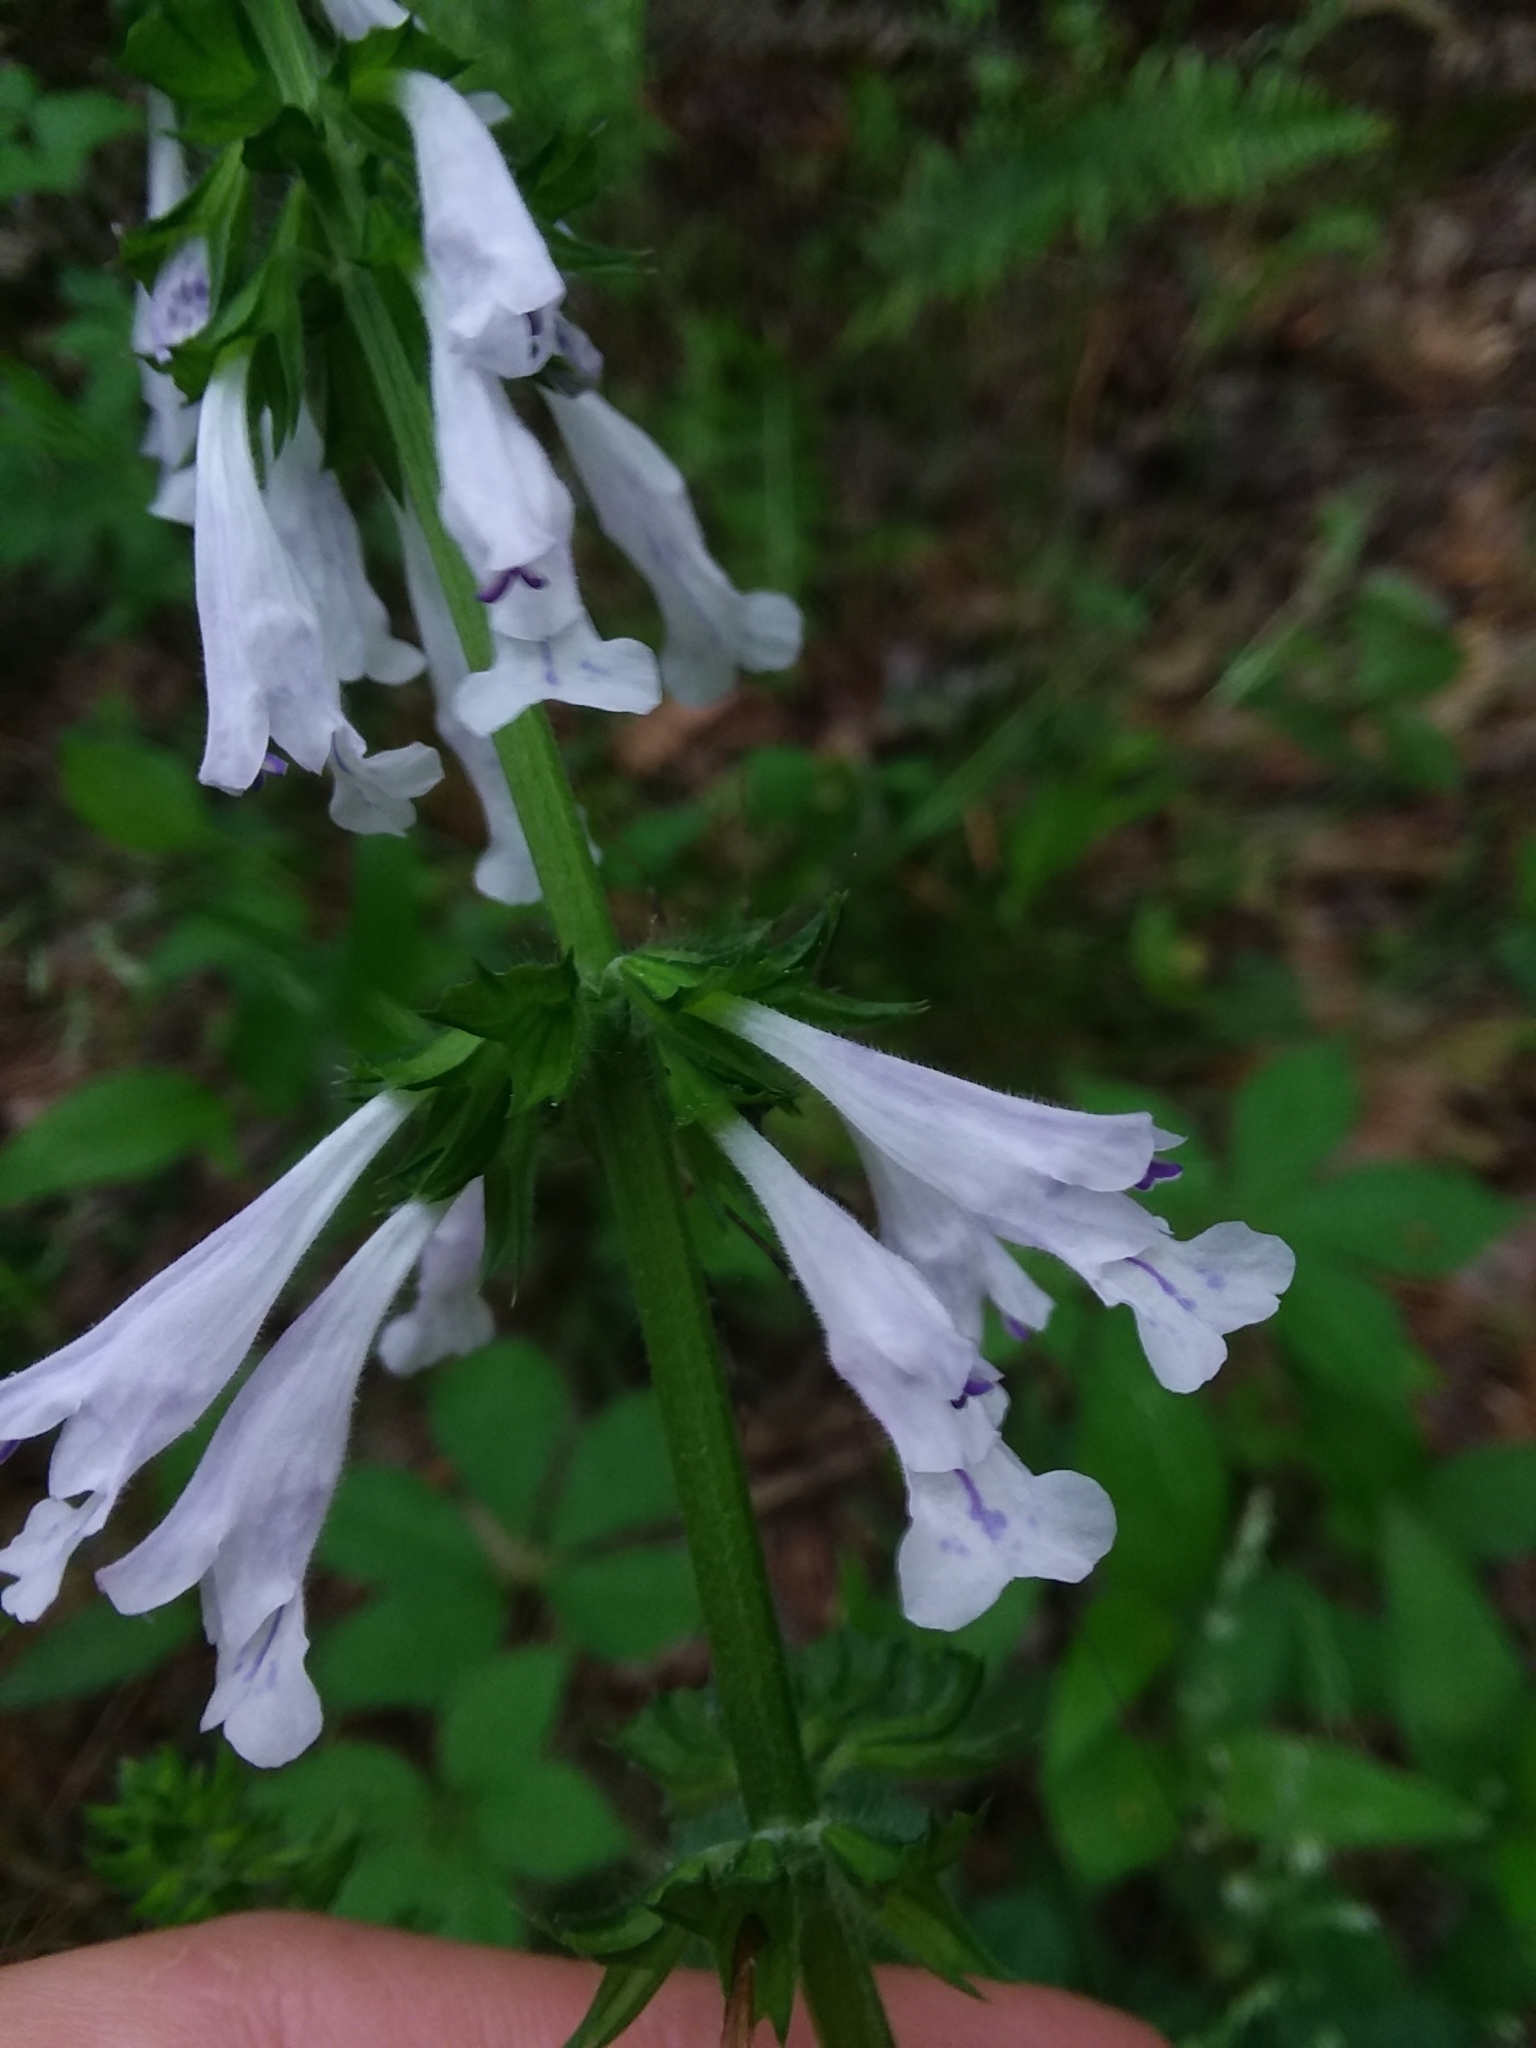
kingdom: Plantae
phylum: Tracheophyta
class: Magnoliopsida
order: Lamiales
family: Lamiaceae
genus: Salvia
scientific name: Salvia lyrata
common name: Cancerweed
